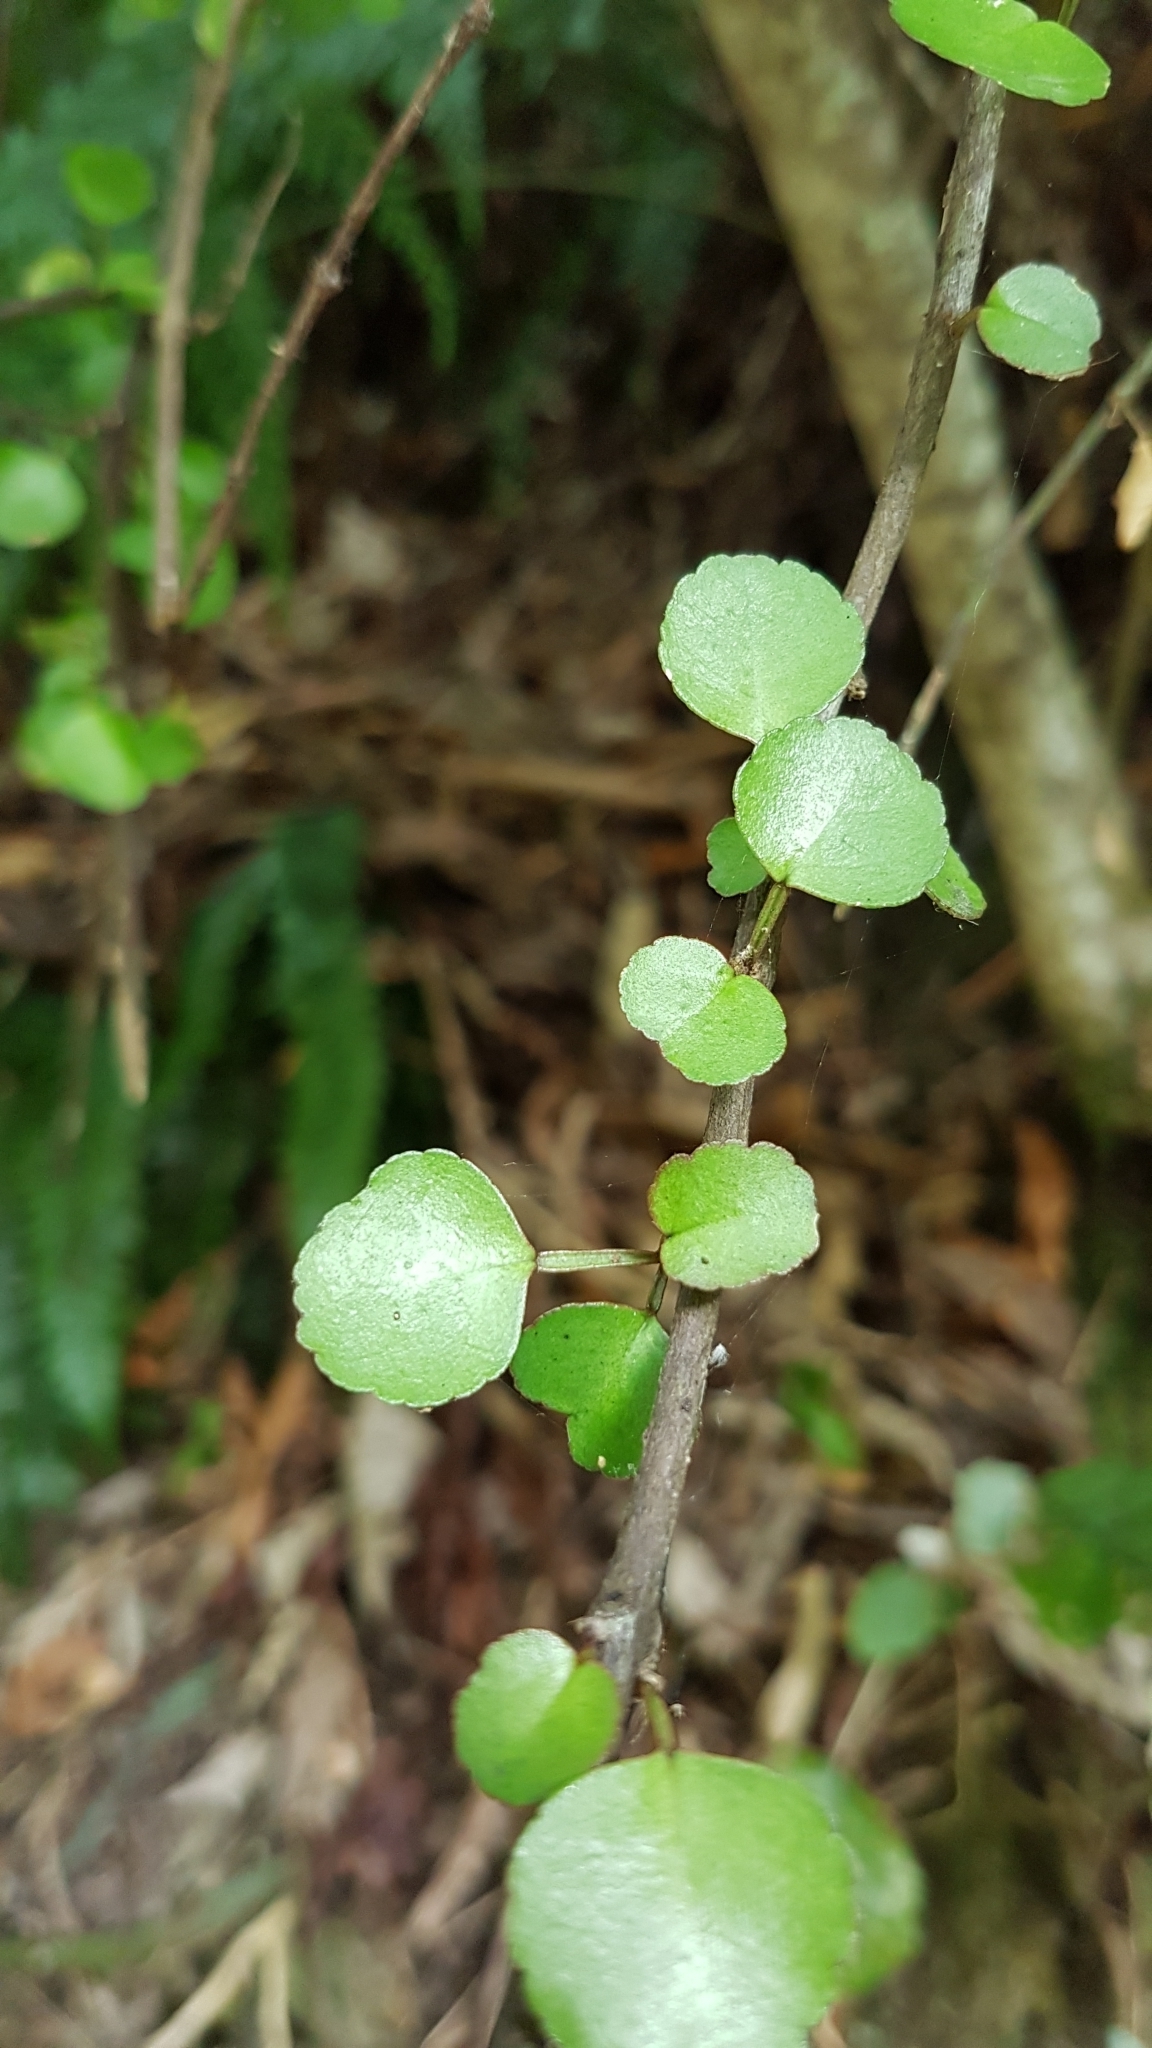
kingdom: Plantae
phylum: Tracheophyta
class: Magnoliopsida
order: Sapindales
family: Rutaceae
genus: Melicope
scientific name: Melicope simplex
